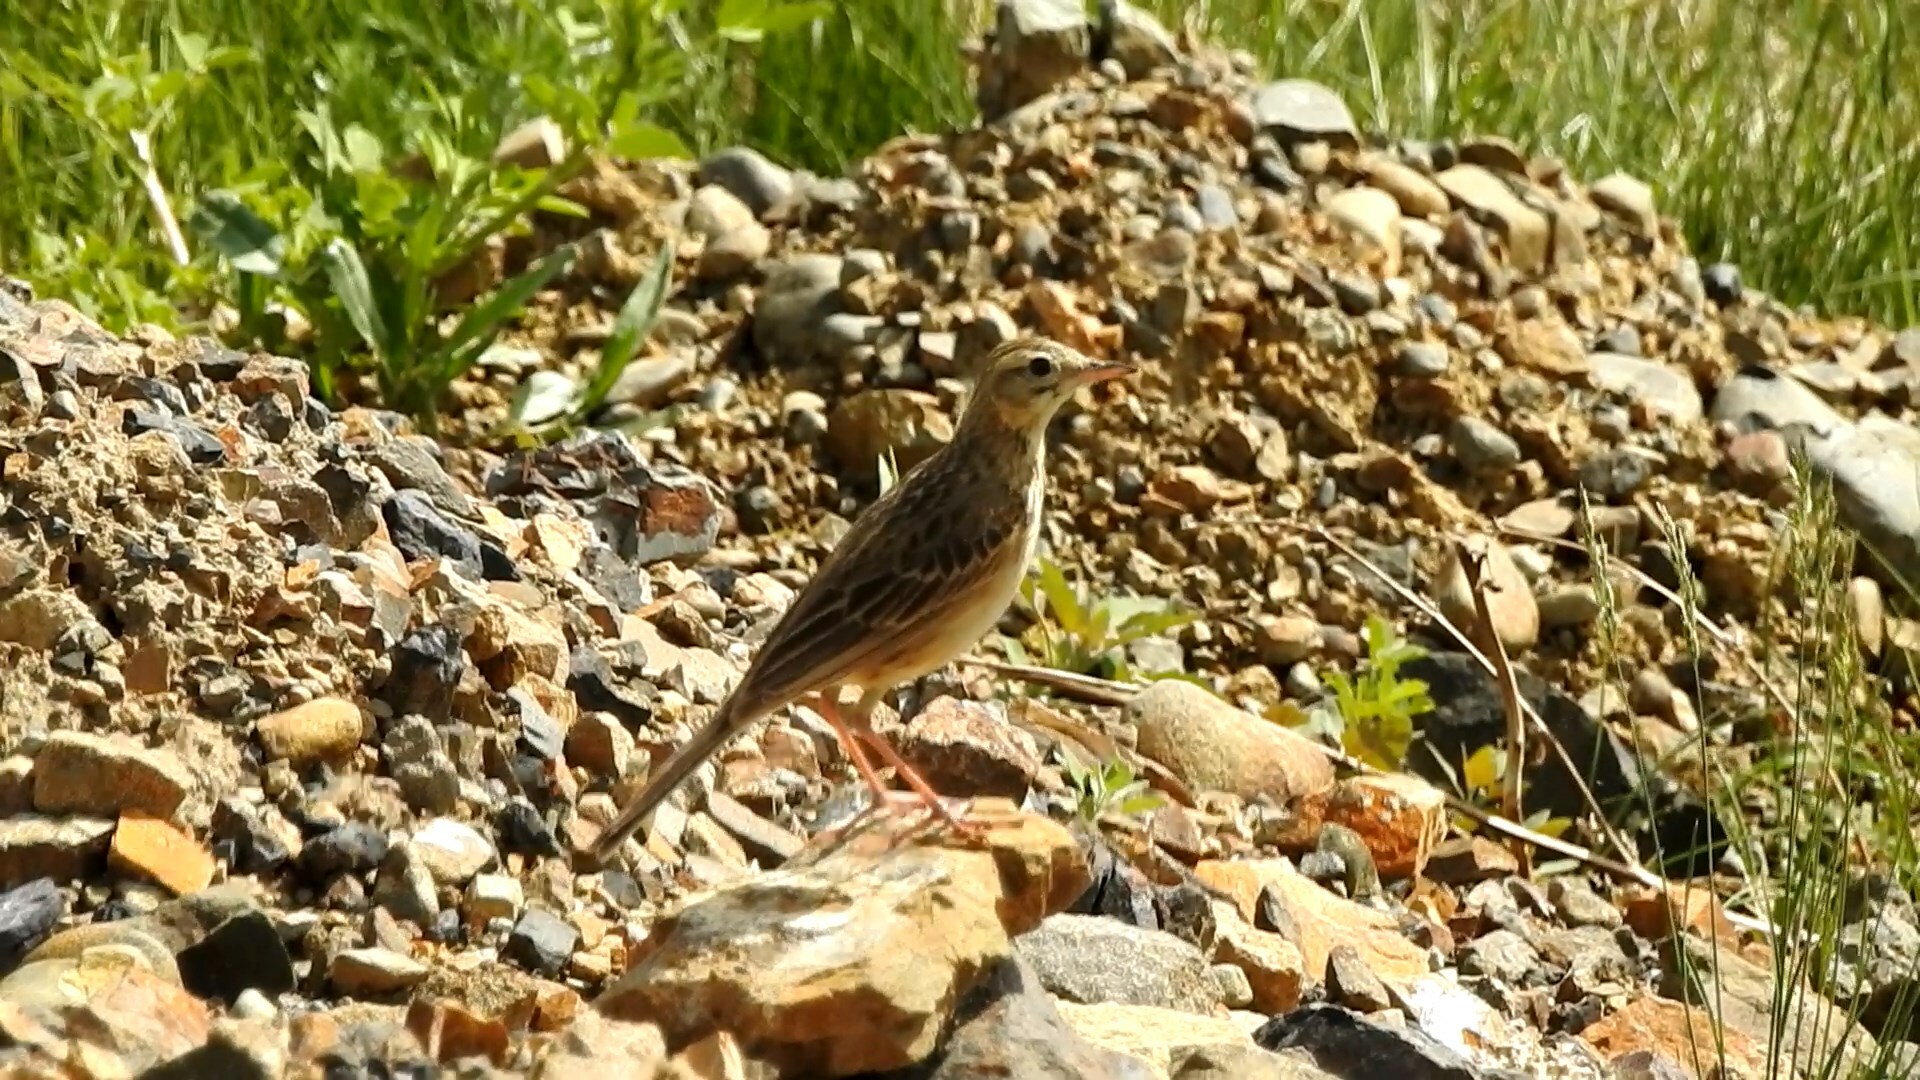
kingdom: Animalia
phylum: Chordata
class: Aves
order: Passeriformes
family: Motacillidae
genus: Anthus
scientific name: Anthus richardi
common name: Richard's pipit
